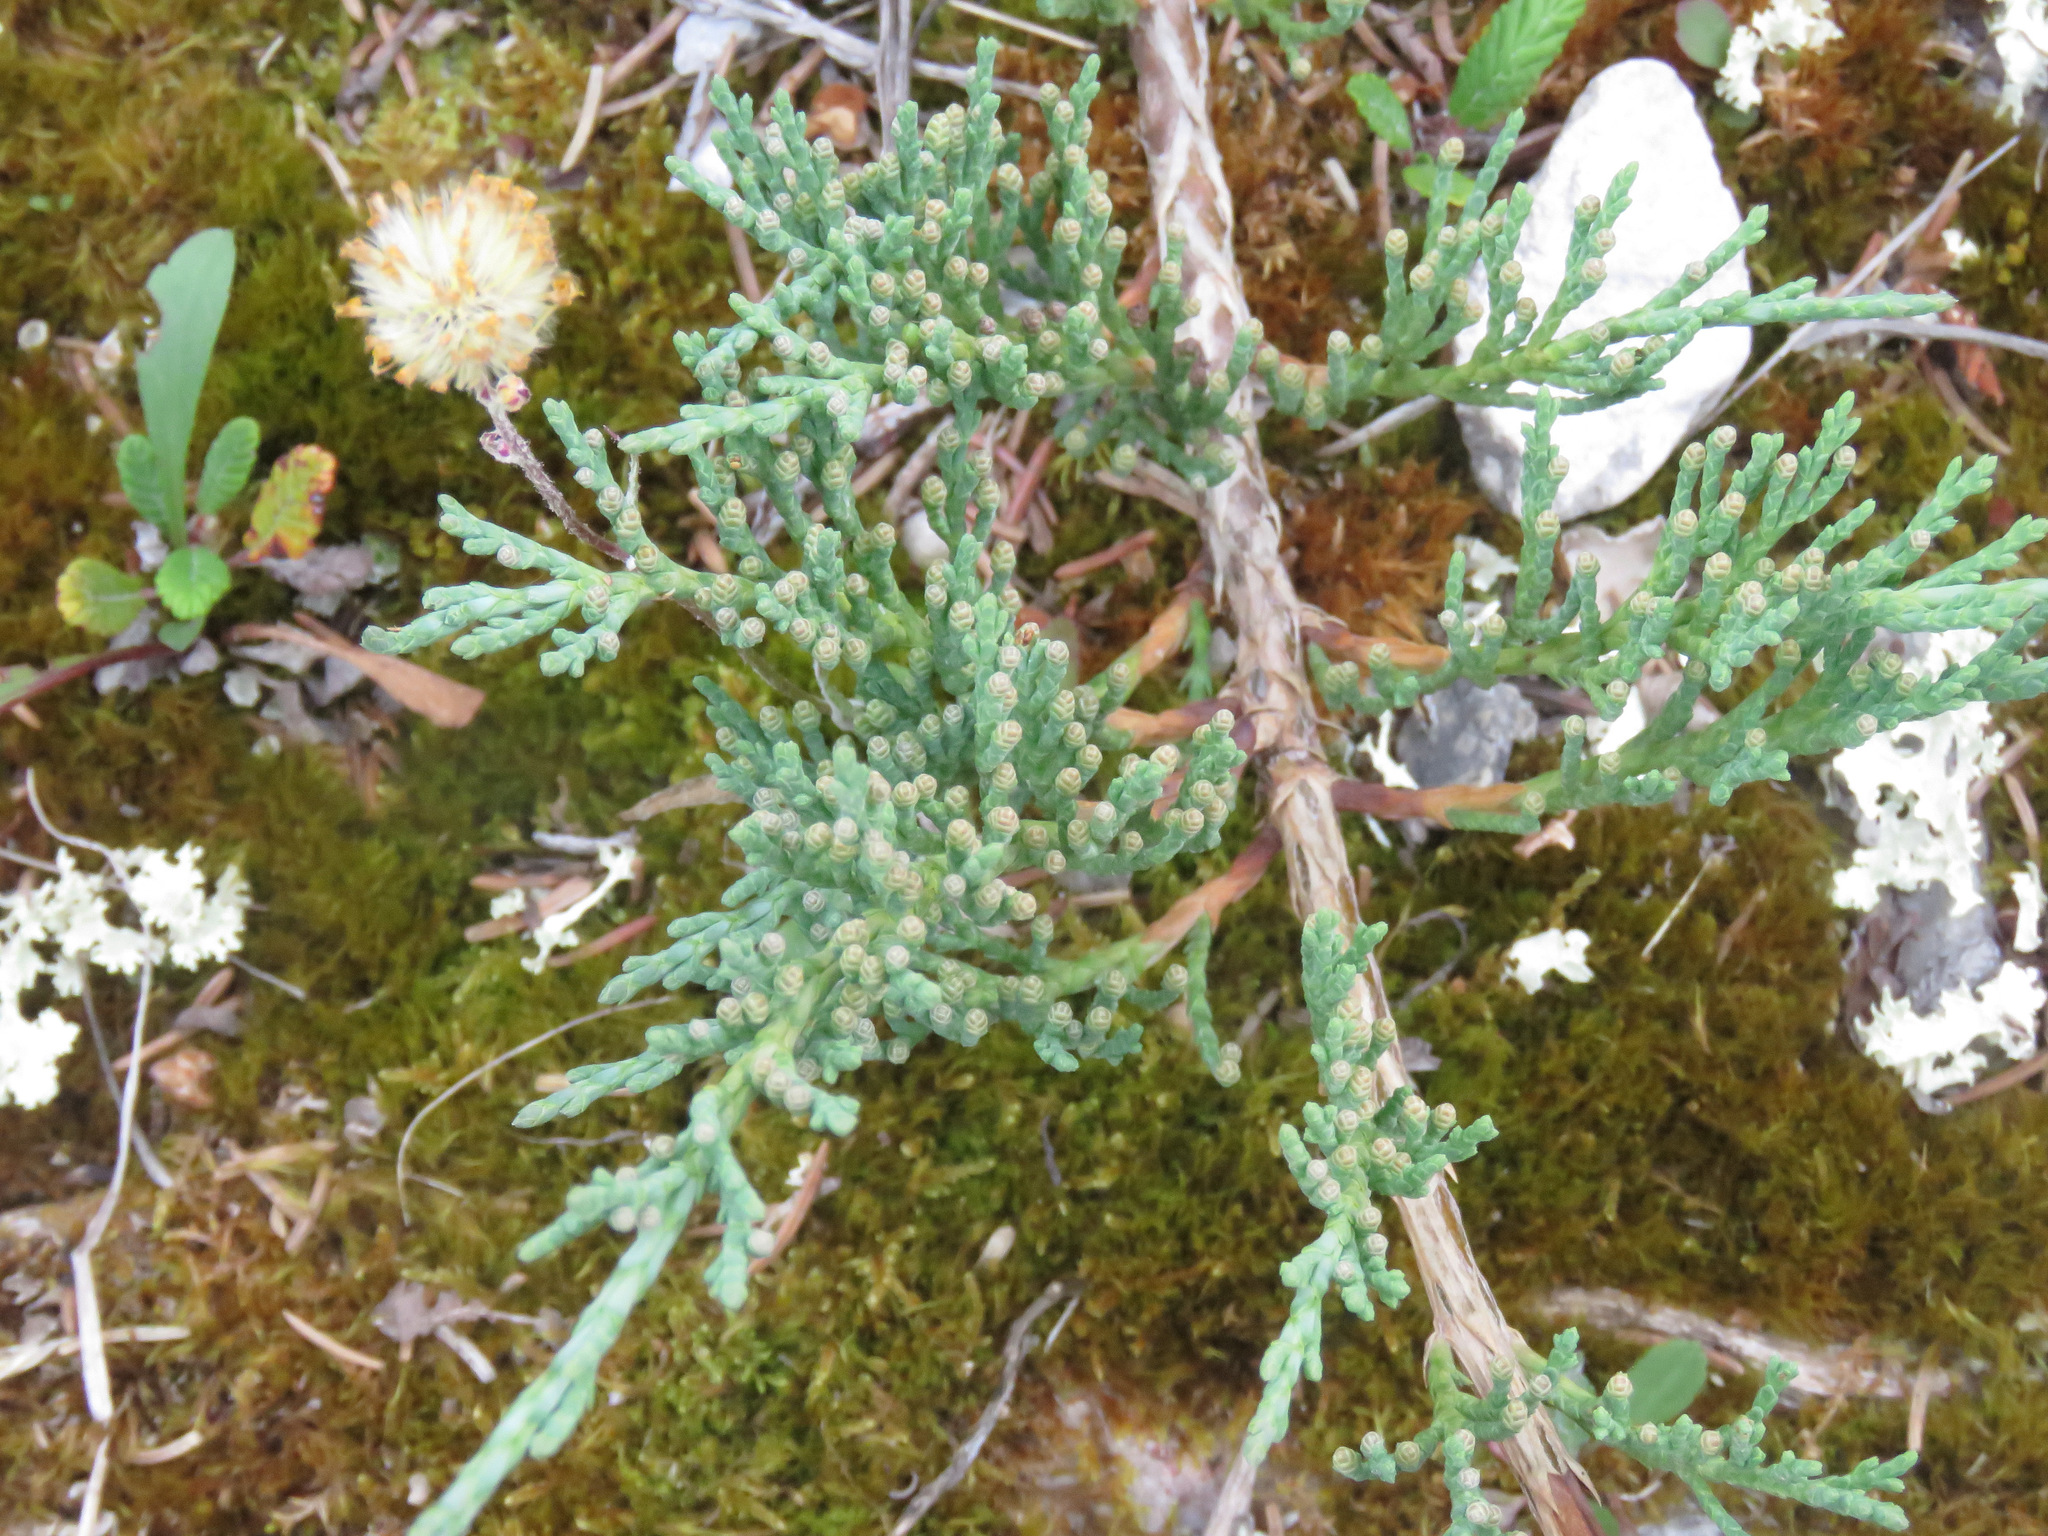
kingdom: Plantae
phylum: Tracheophyta
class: Pinopsida
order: Pinales
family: Cupressaceae
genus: Juniperus
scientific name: Juniperus horizontalis
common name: Creeping juniper
